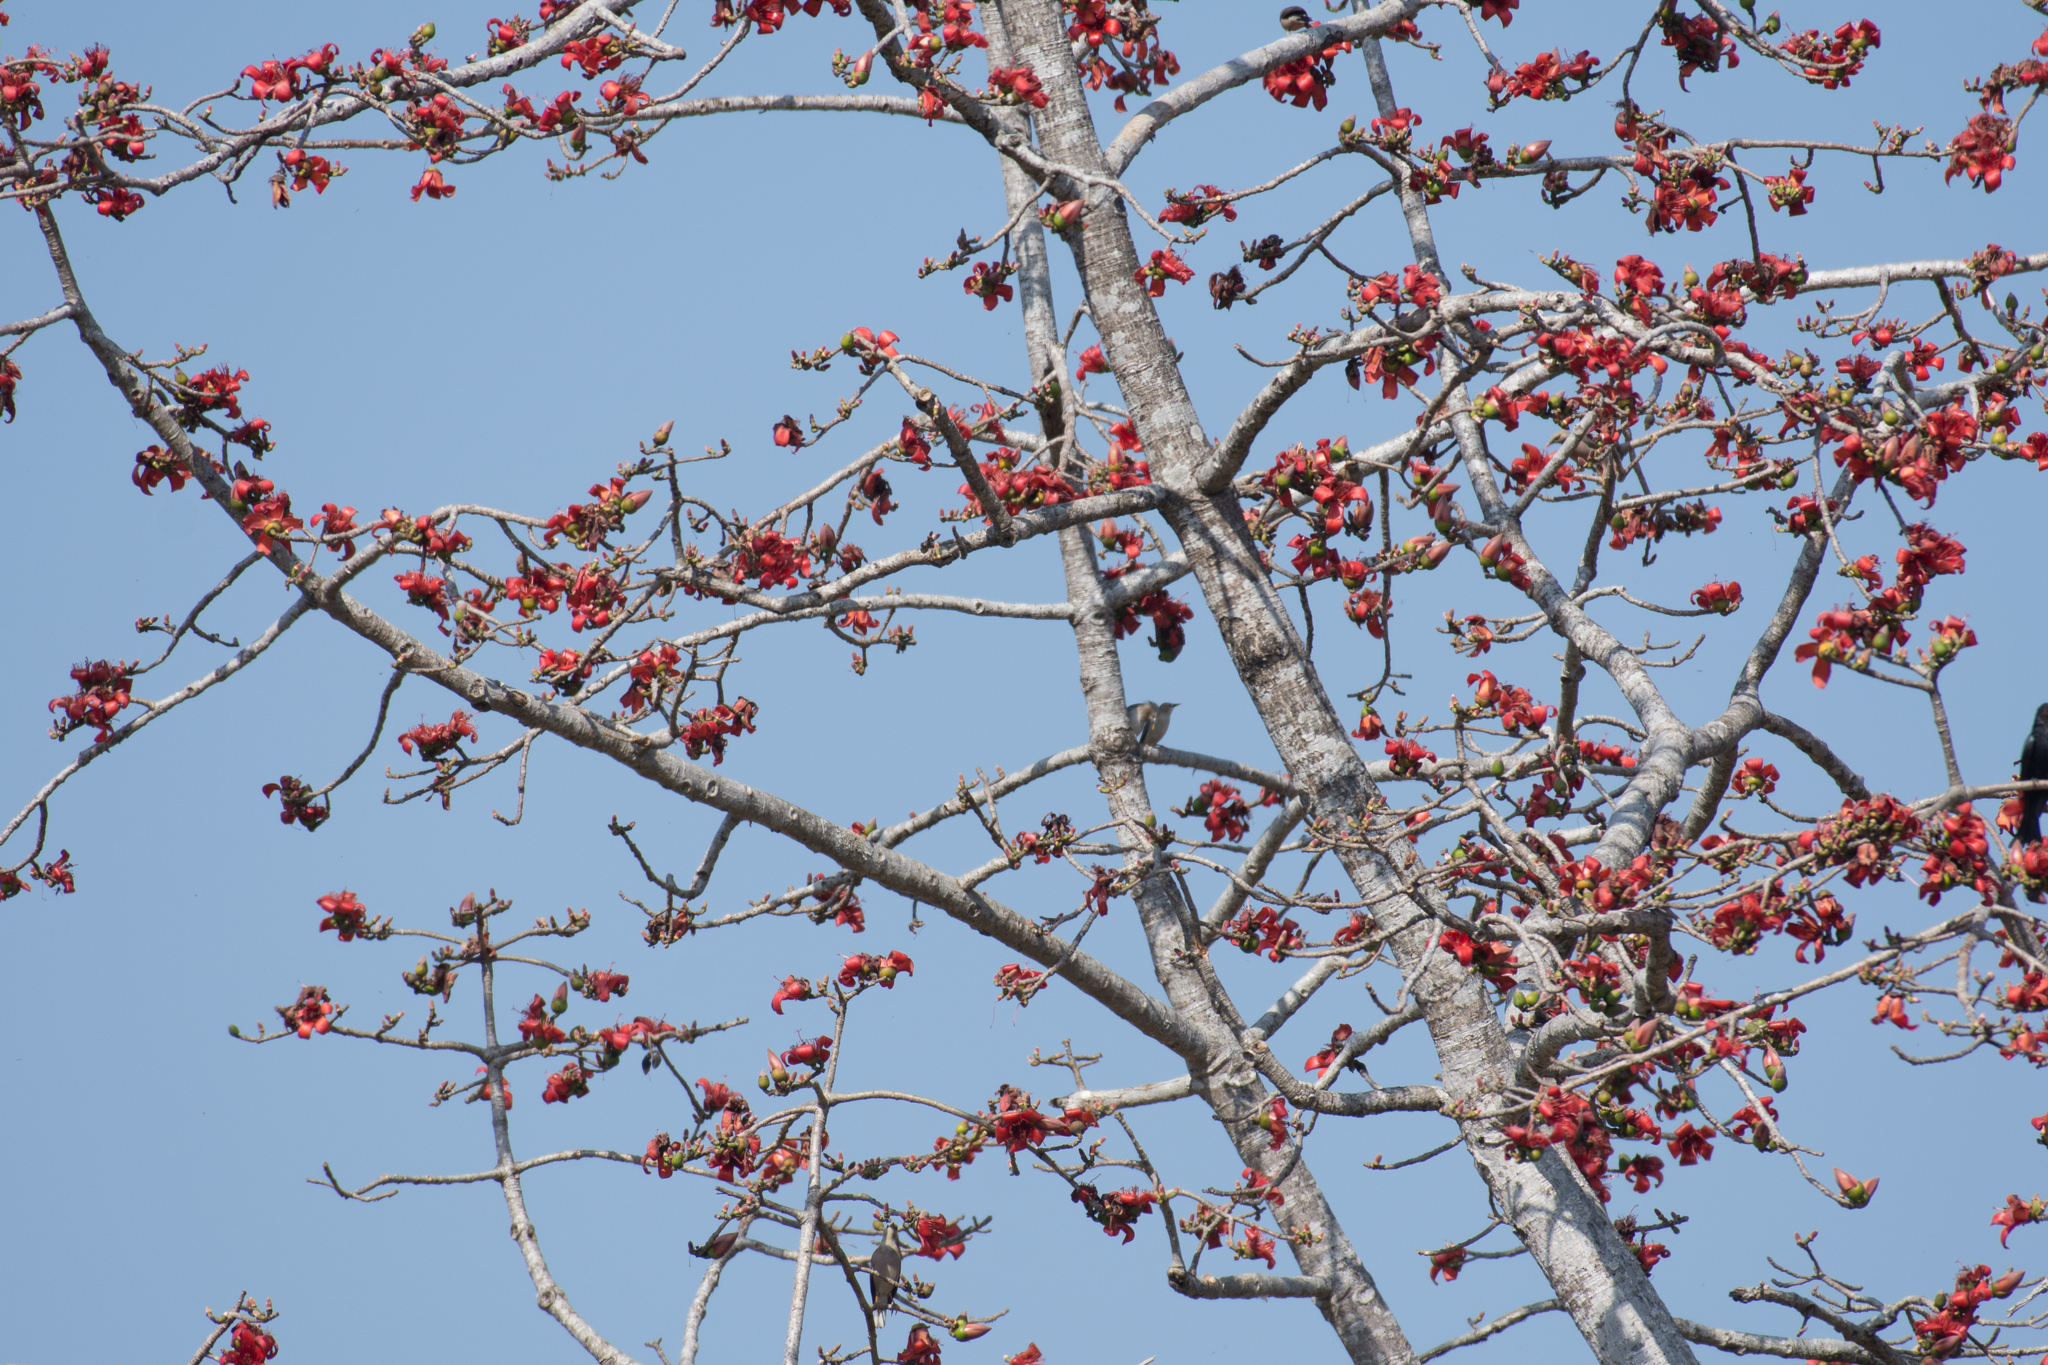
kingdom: Plantae
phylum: Tracheophyta
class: Magnoliopsida
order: Malvales
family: Malvaceae
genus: Bombax
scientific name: Bombax ceiba
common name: Northern-cottonwood
